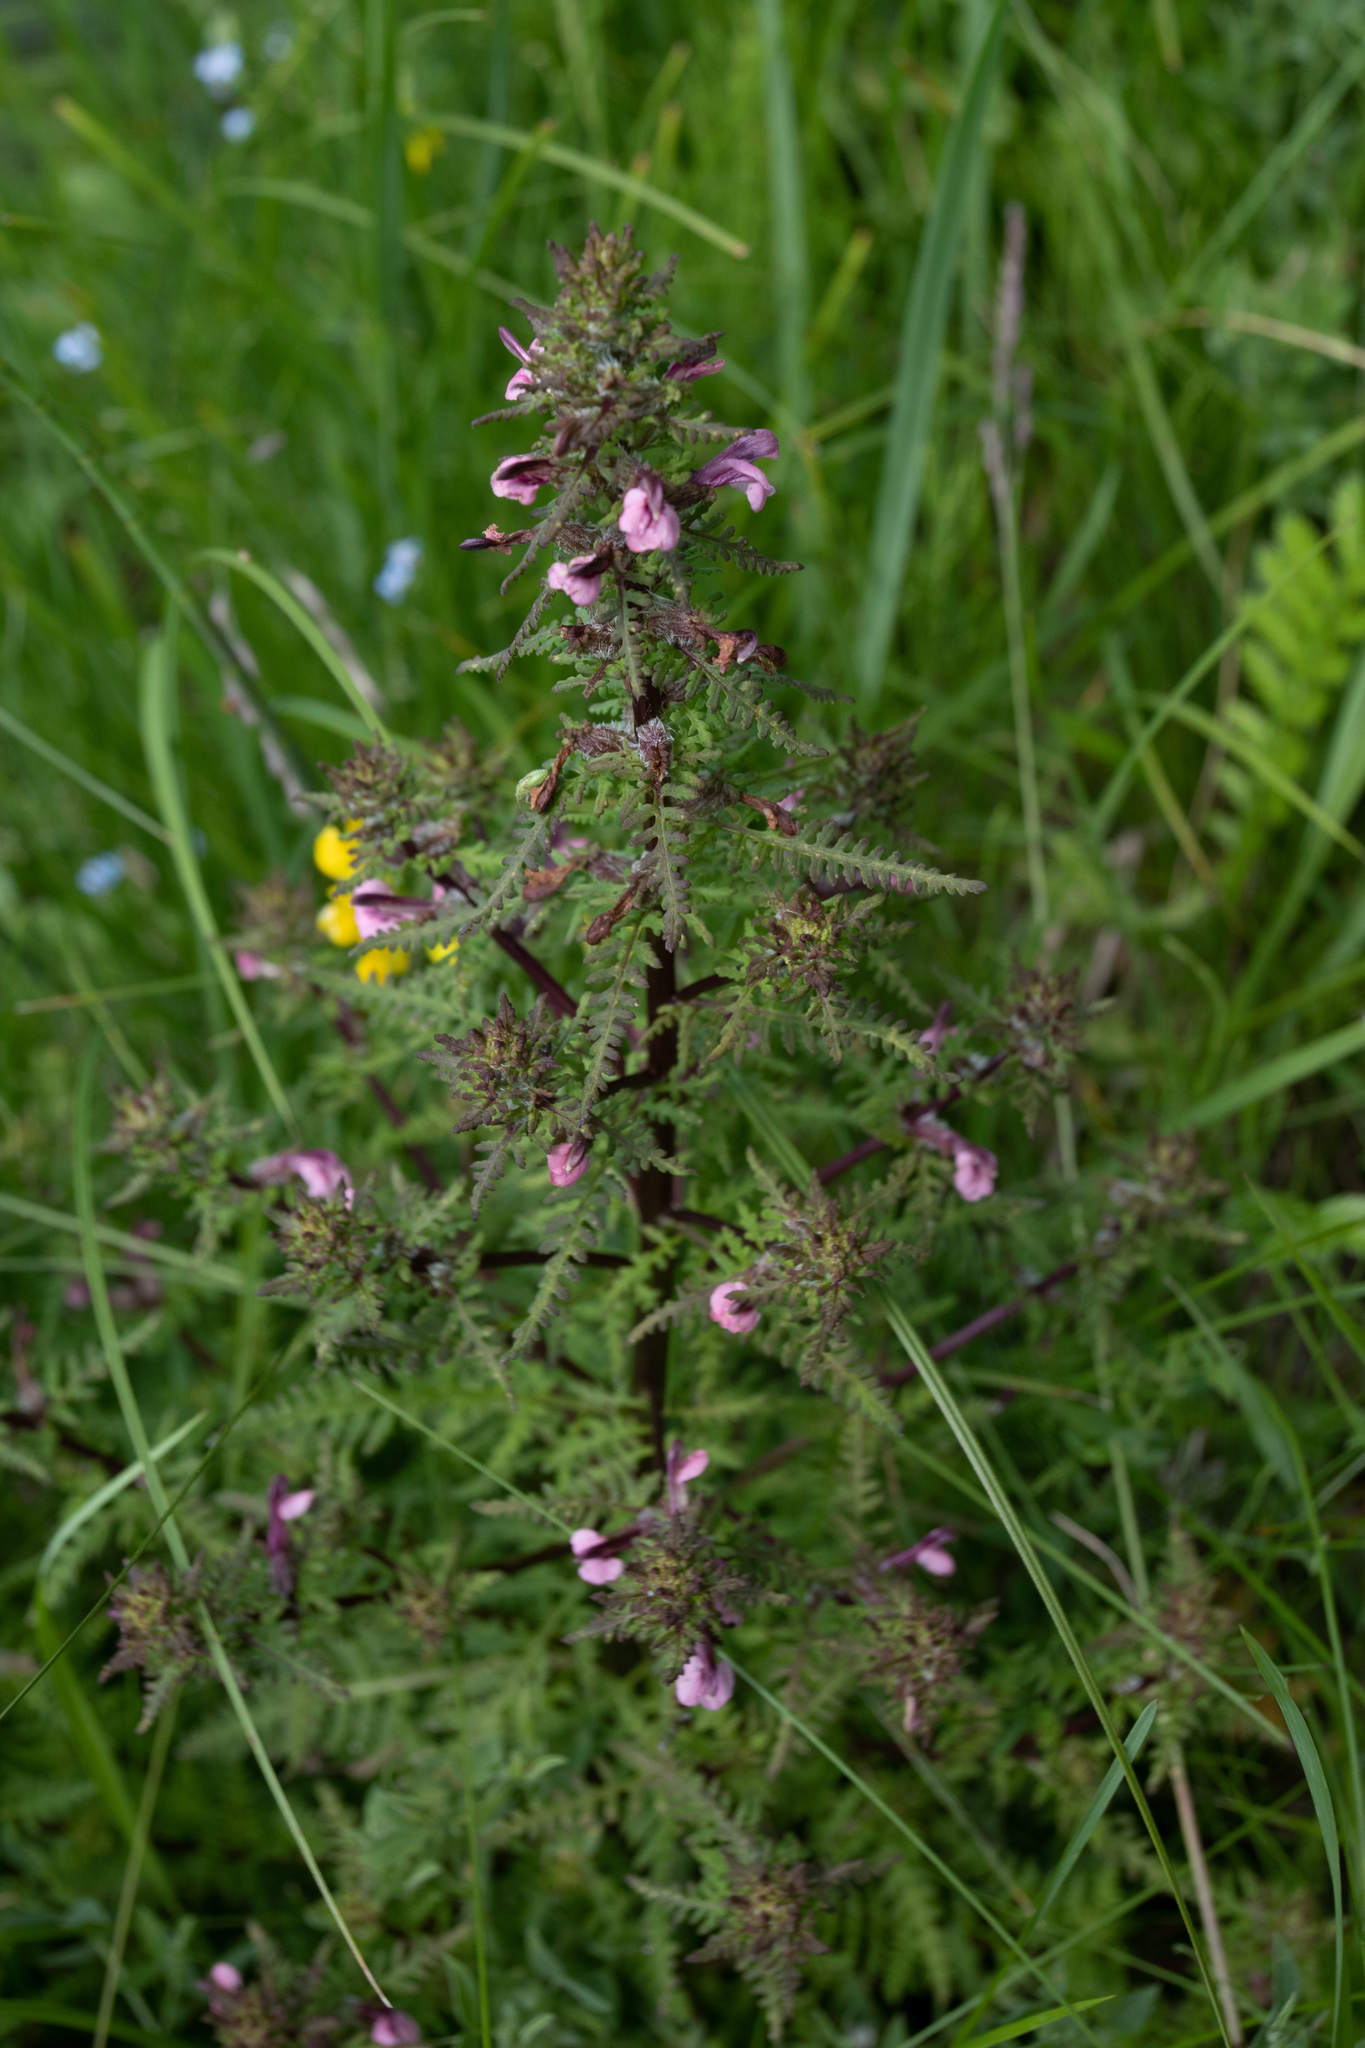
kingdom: Plantae
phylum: Tracheophyta
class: Magnoliopsida
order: Lamiales
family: Orobanchaceae
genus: Pedicularis
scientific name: Pedicularis karoi
